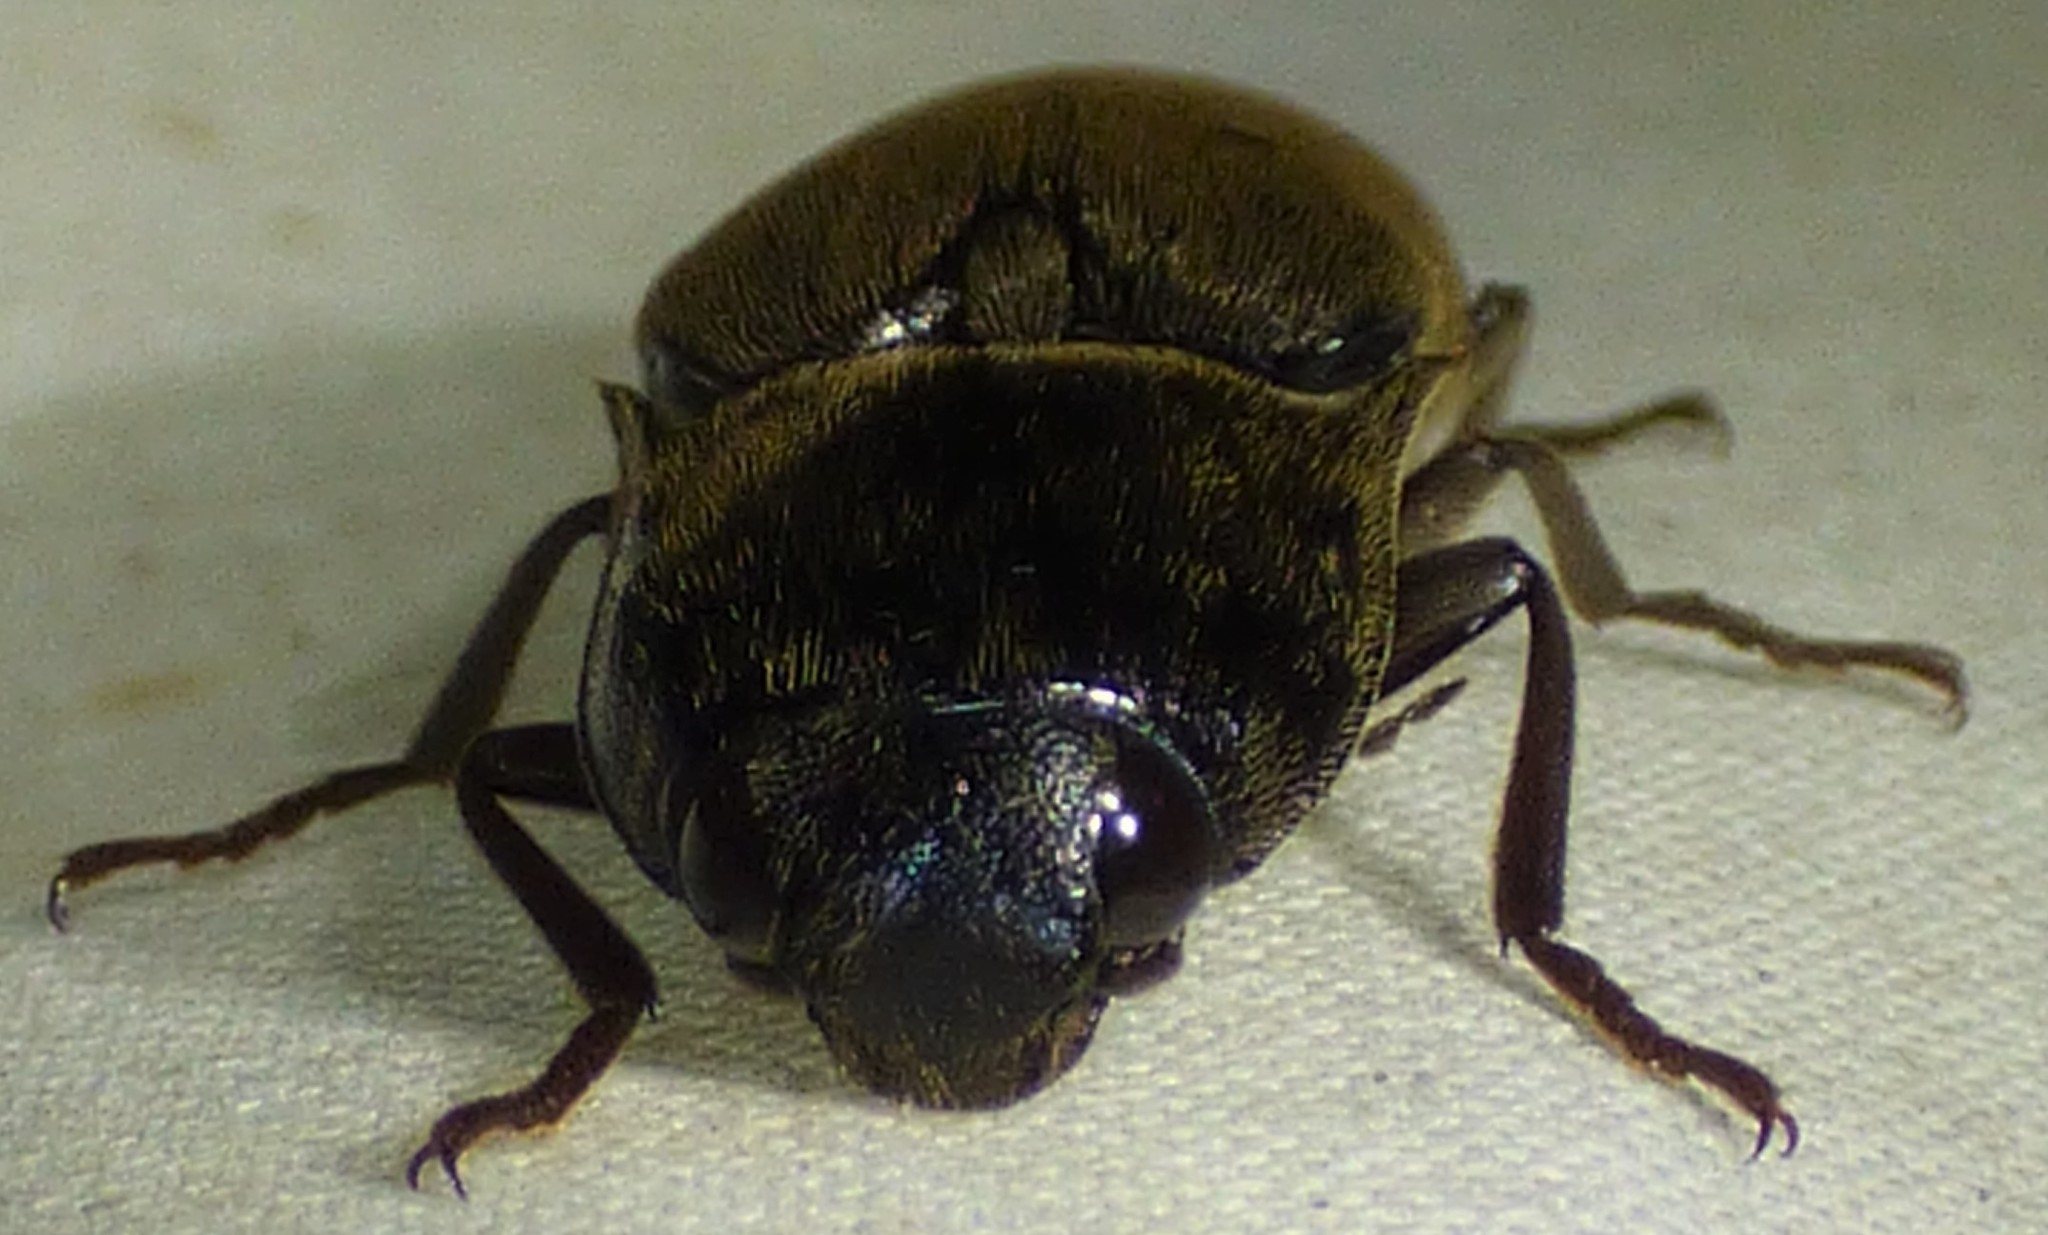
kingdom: Animalia
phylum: Arthropoda
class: Insecta
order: Coleoptera
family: Elateridae
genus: Orthostethus
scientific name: Orthostethus infuscatus
